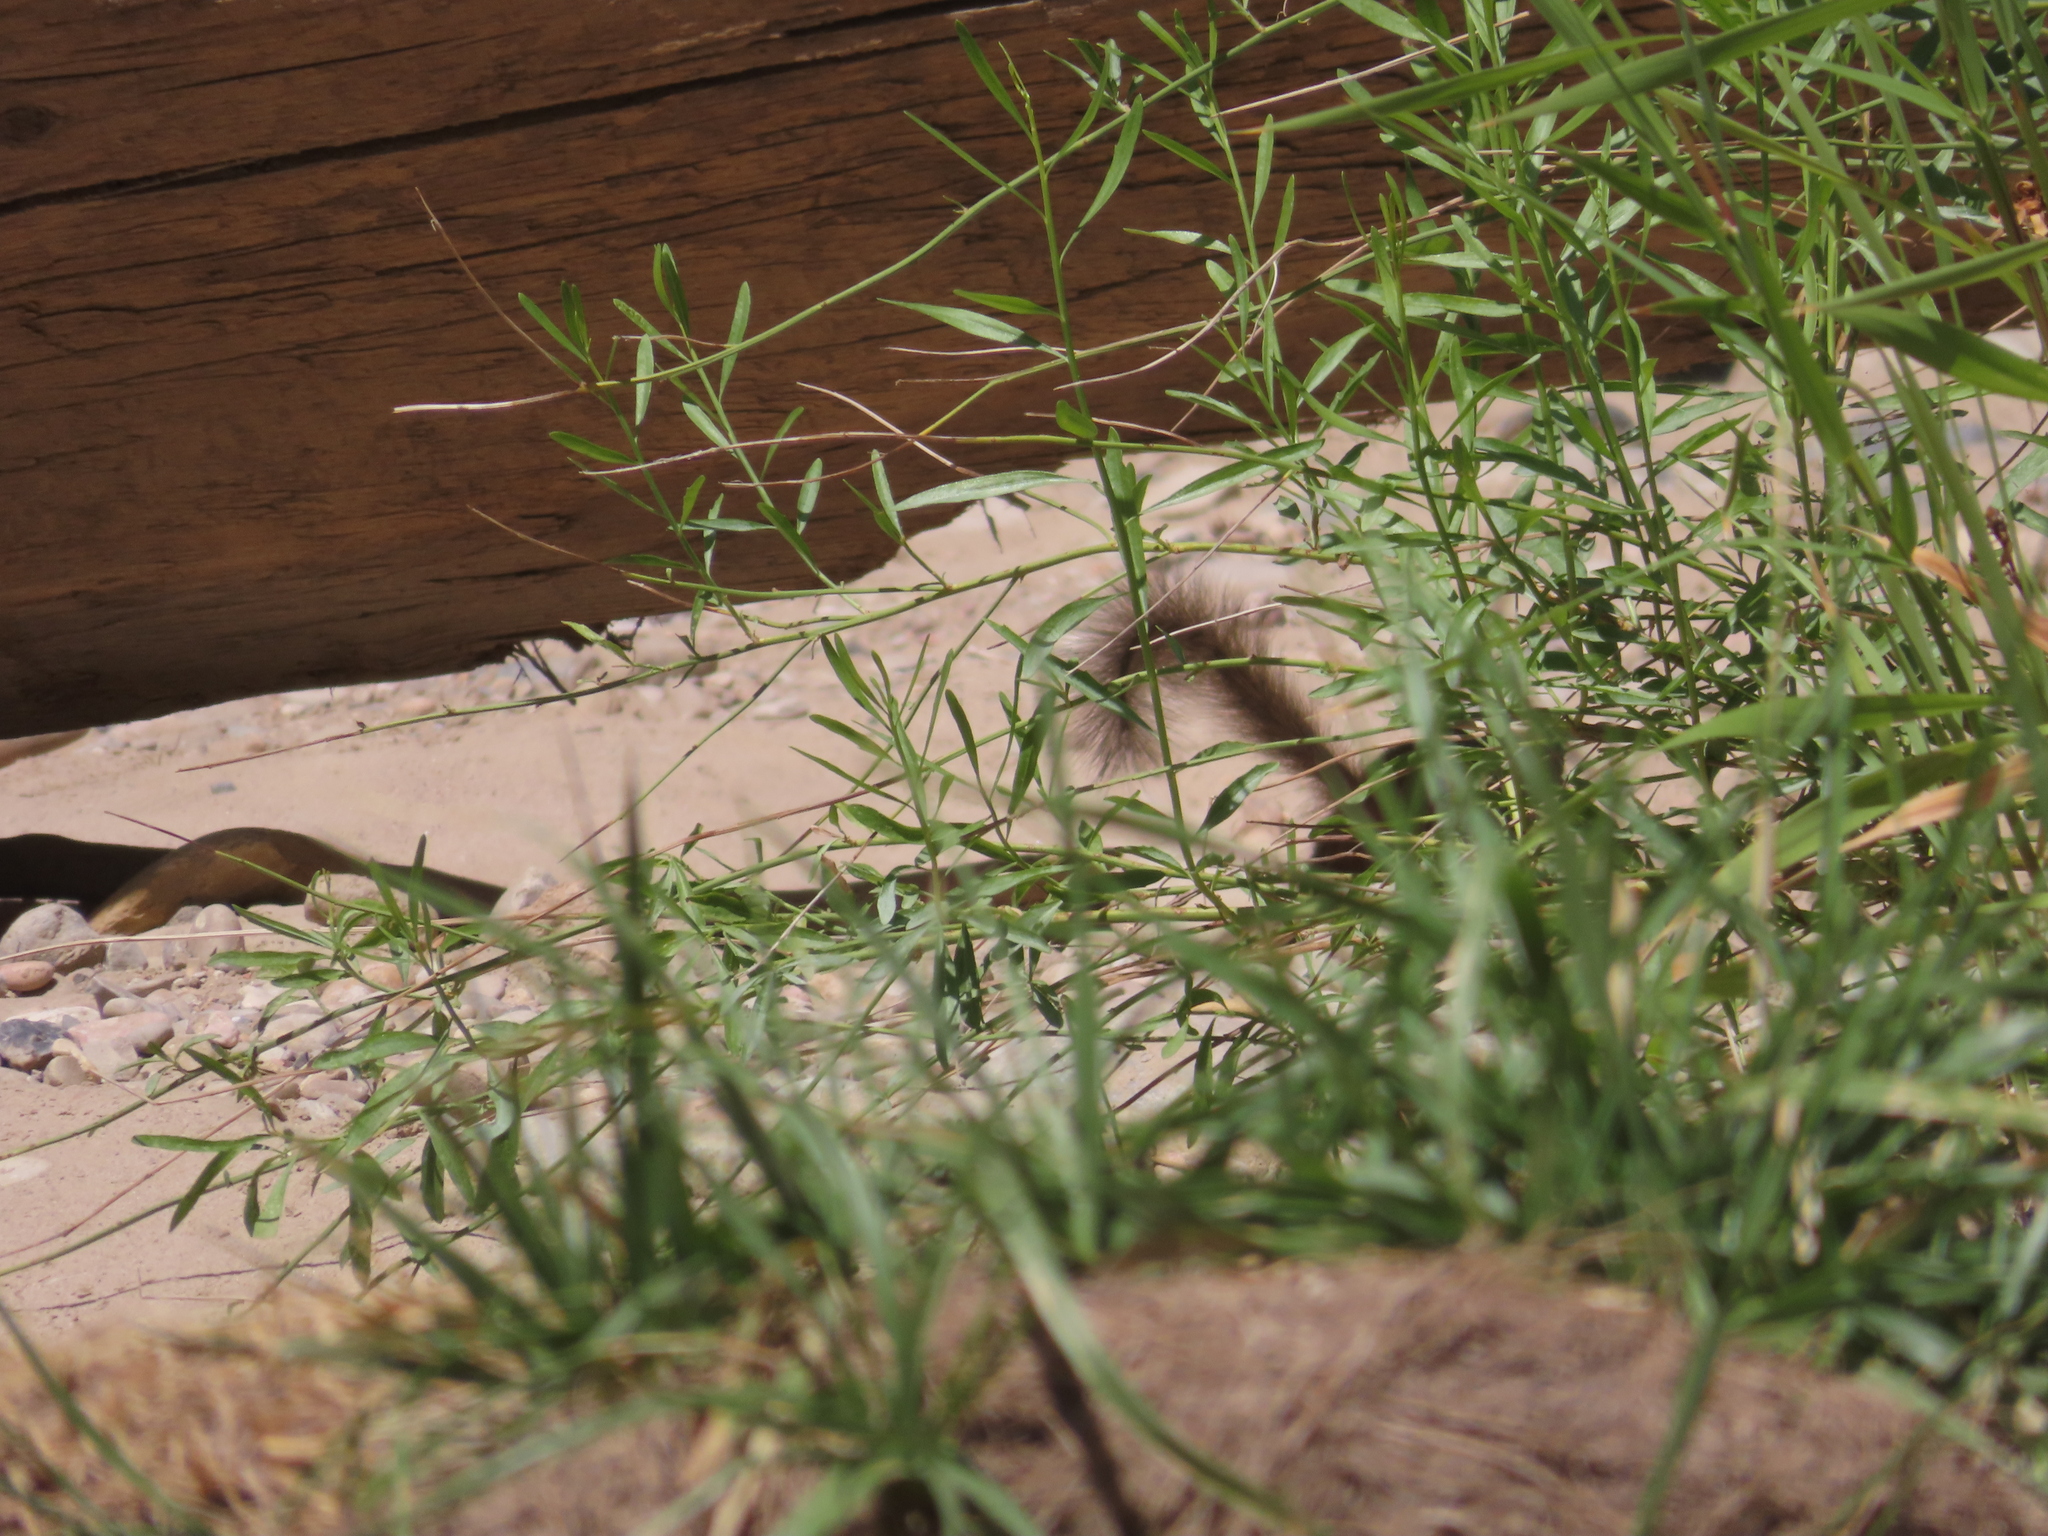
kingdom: Animalia
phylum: Chordata
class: Mammalia
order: Rodentia
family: Sciuridae
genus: Otospermophilus
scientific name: Otospermophilus variegatus
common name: Rock squirrel
